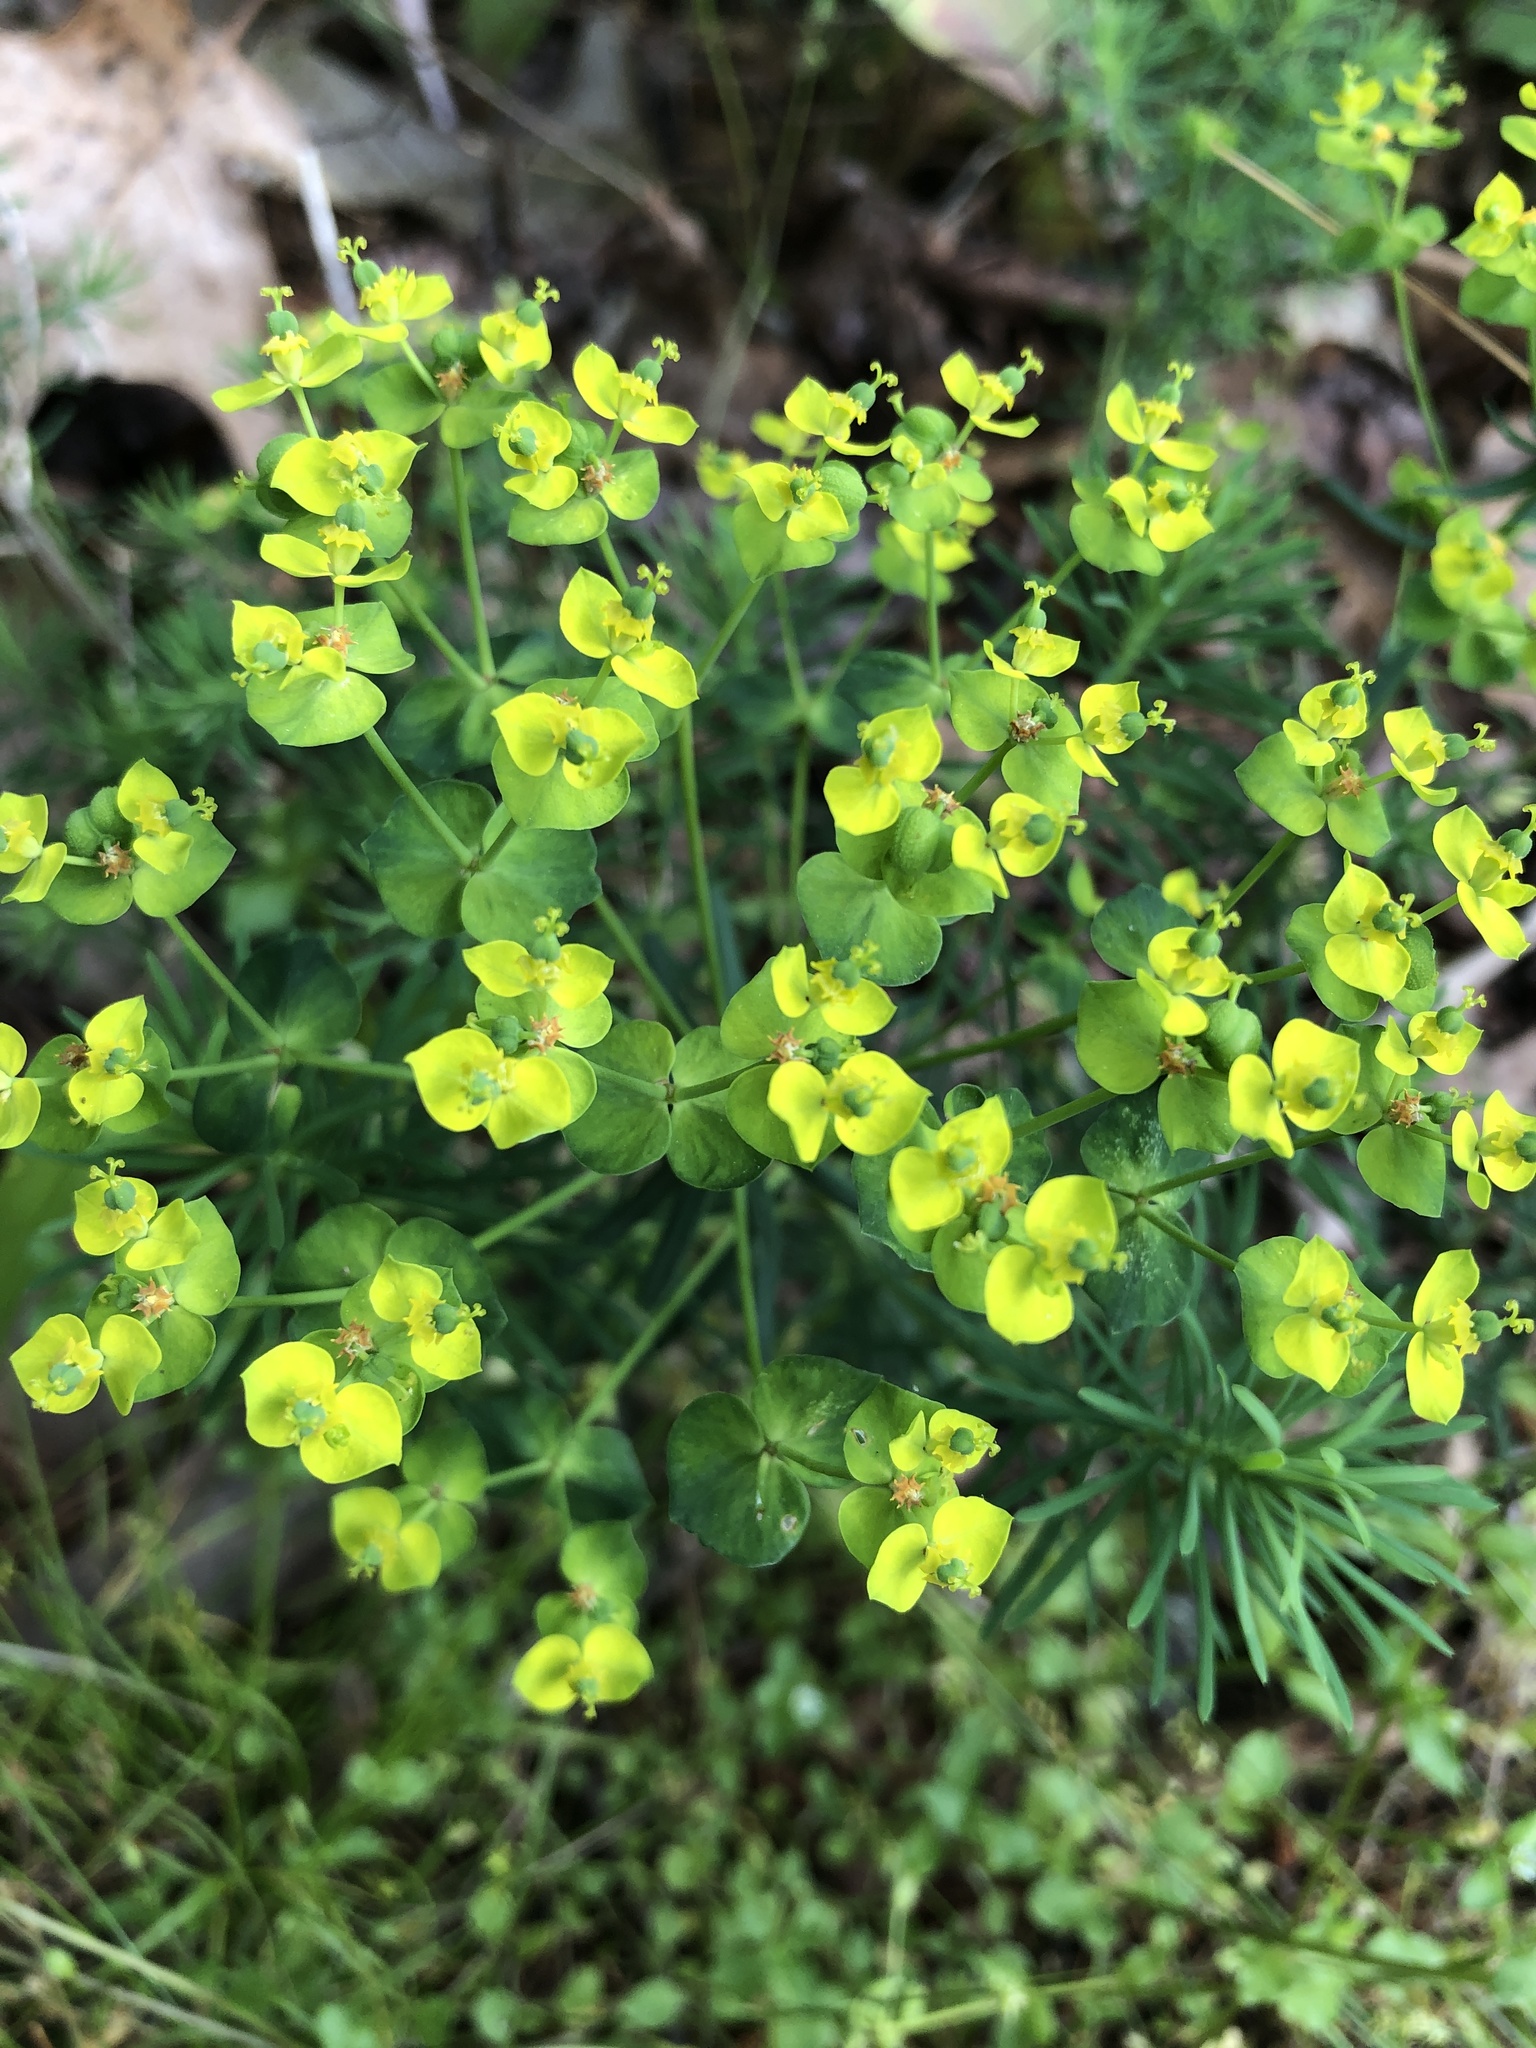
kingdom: Plantae
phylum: Tracheophyta
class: Magnoliopsida
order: Malpighiales
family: Euphorbiaceae
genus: Euphorbia
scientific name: Euphorbia cyparissias
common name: Cypress spurge
